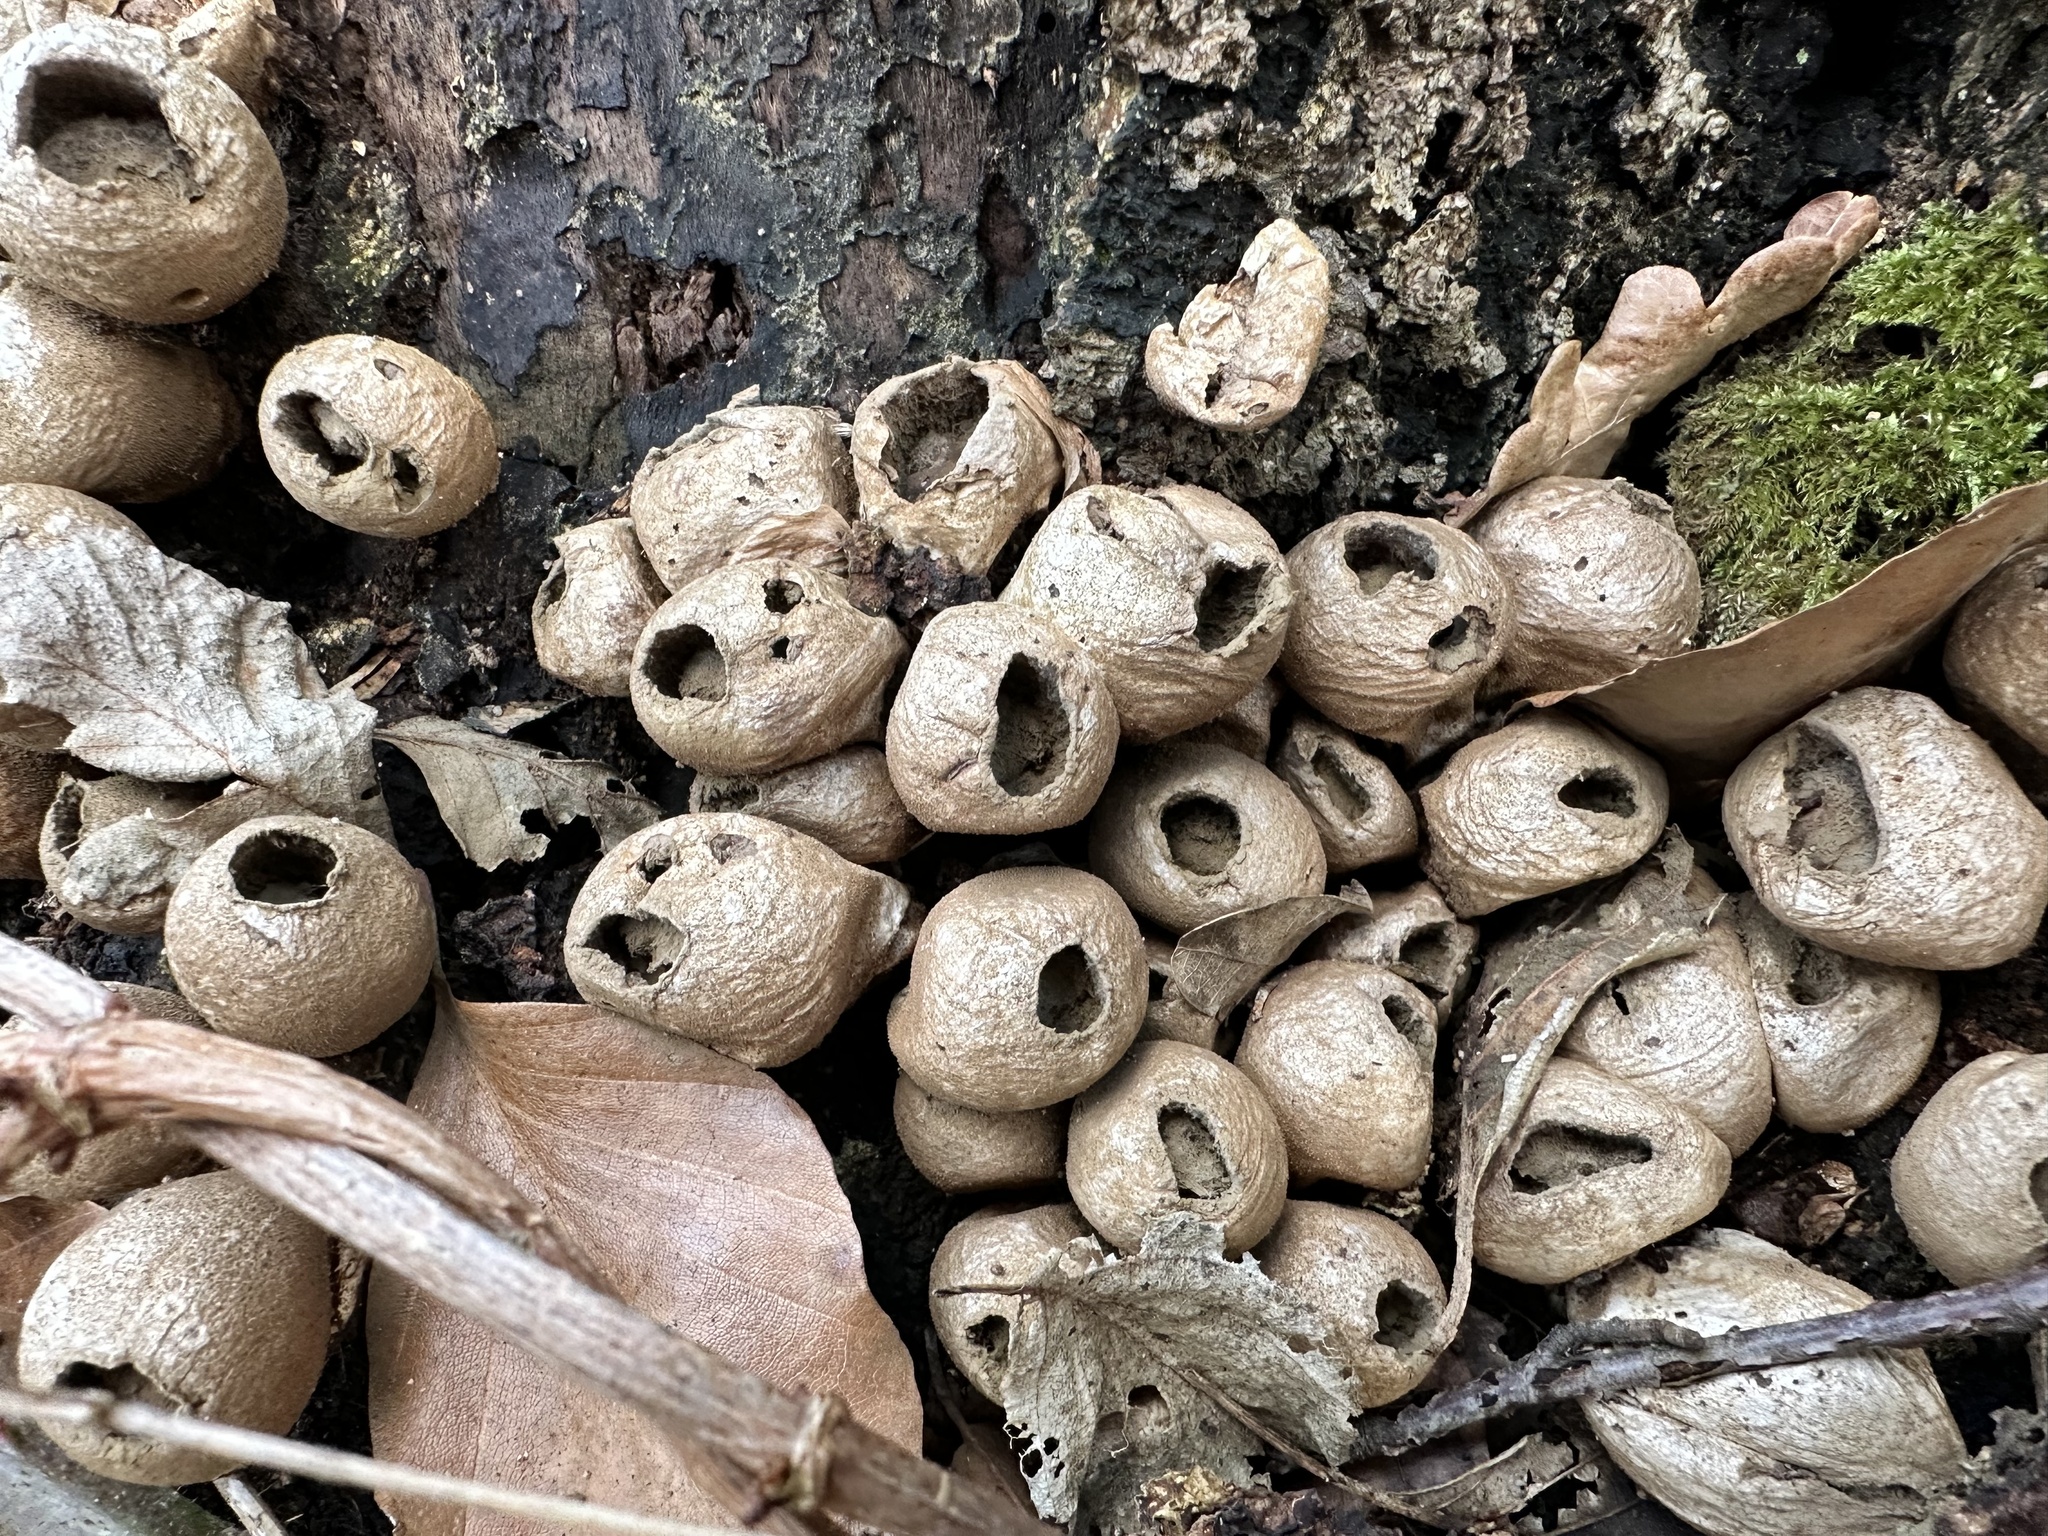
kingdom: Fungi
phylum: Basidiomycota
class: Agaricomycetes
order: Agaricales
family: Lycoperdaceae
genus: Apioperdon
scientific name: Apioperdon pyriforme
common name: Pear-shaped puffball
